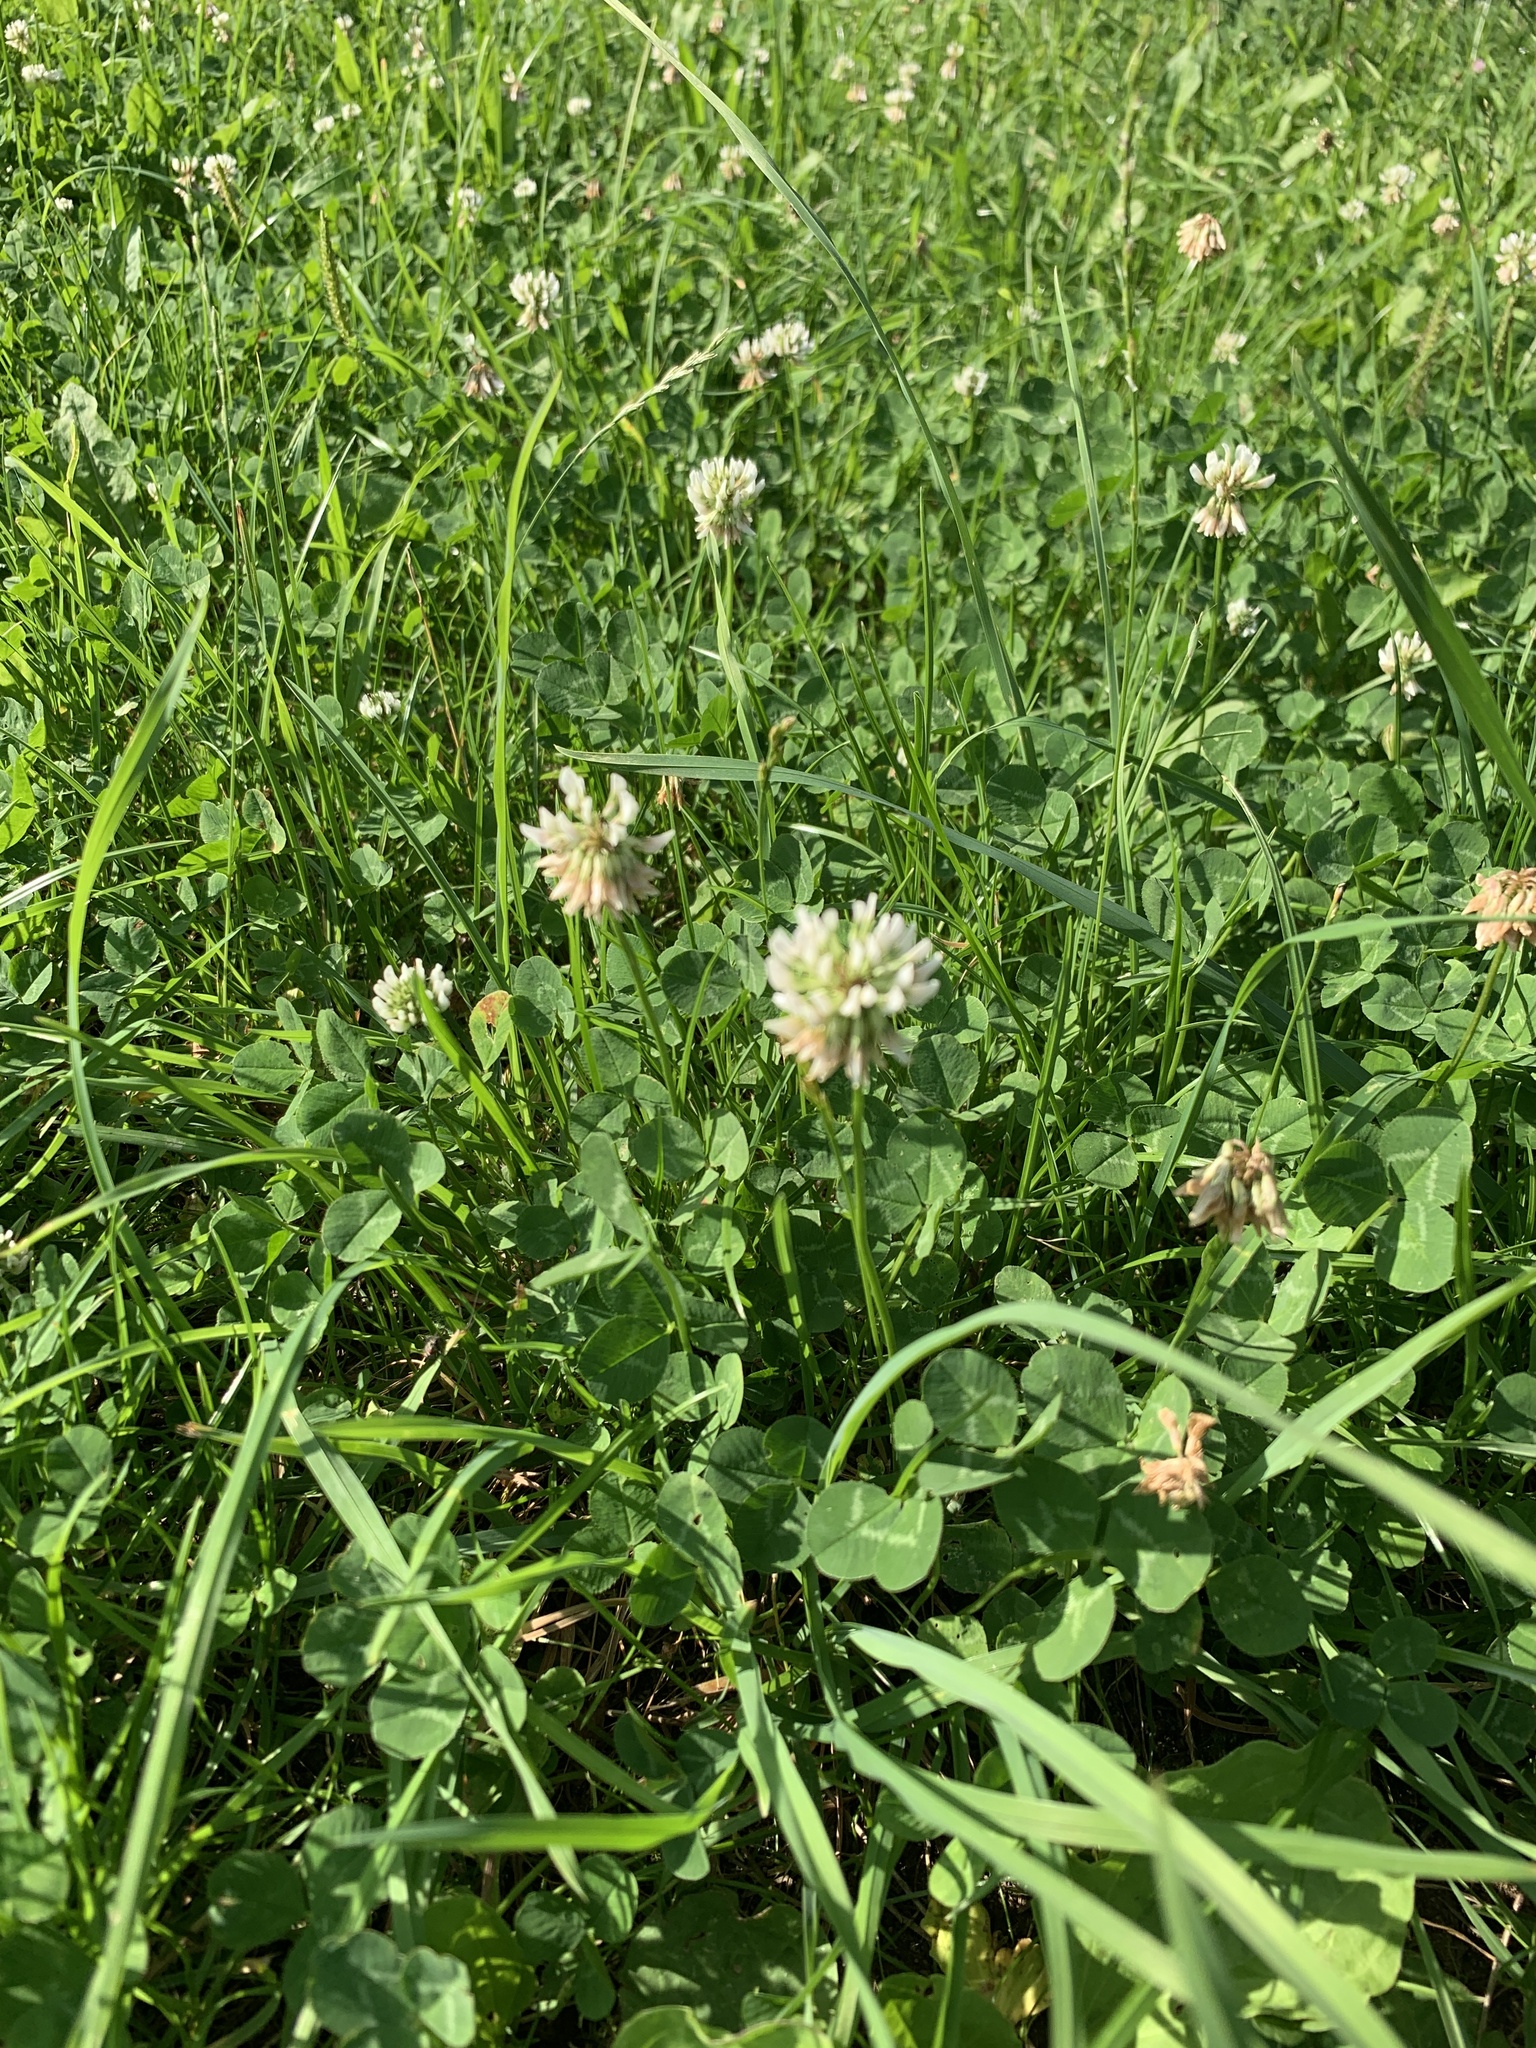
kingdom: Plantae
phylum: Tracheophyta
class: Magnoliopsida
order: Fabales
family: Fabaceae
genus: Trifolium
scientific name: Trifolium repens
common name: White clover
